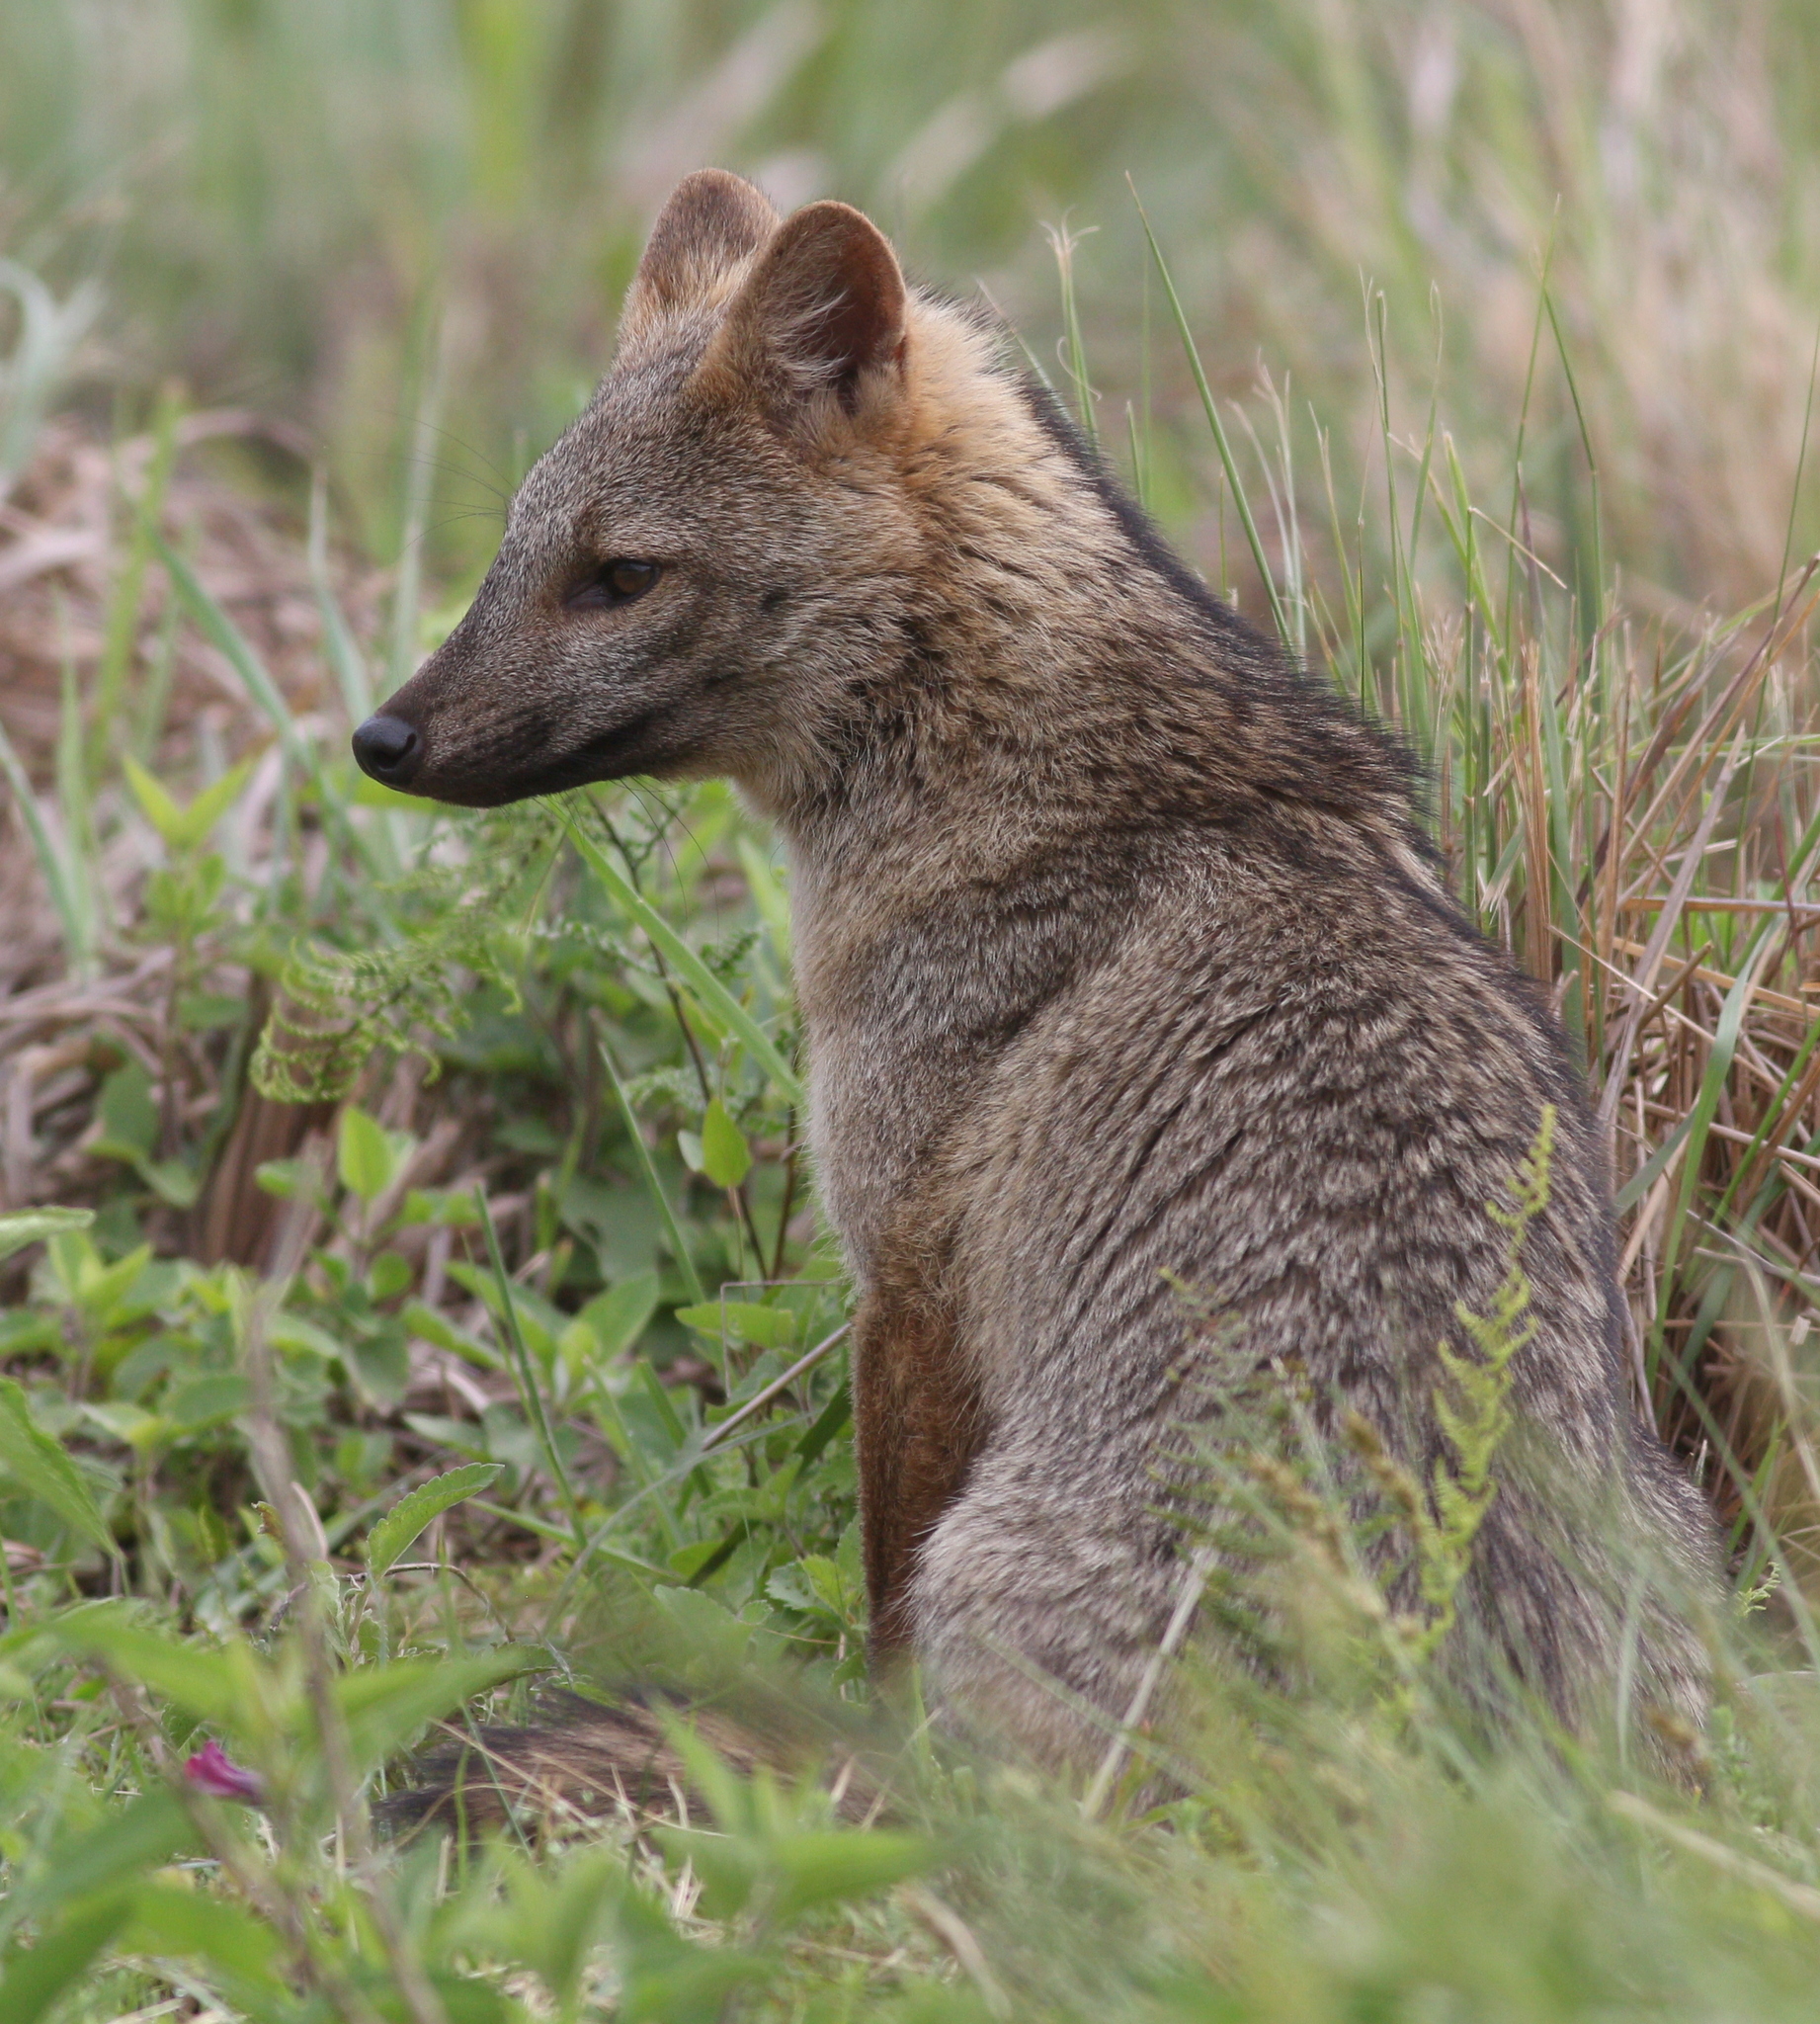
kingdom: Animalia
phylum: Chordata
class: Mammalia
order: Carnivora
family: Canidae
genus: Cerdocyon
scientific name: Cerdocyon thous
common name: Crab-eating fox
